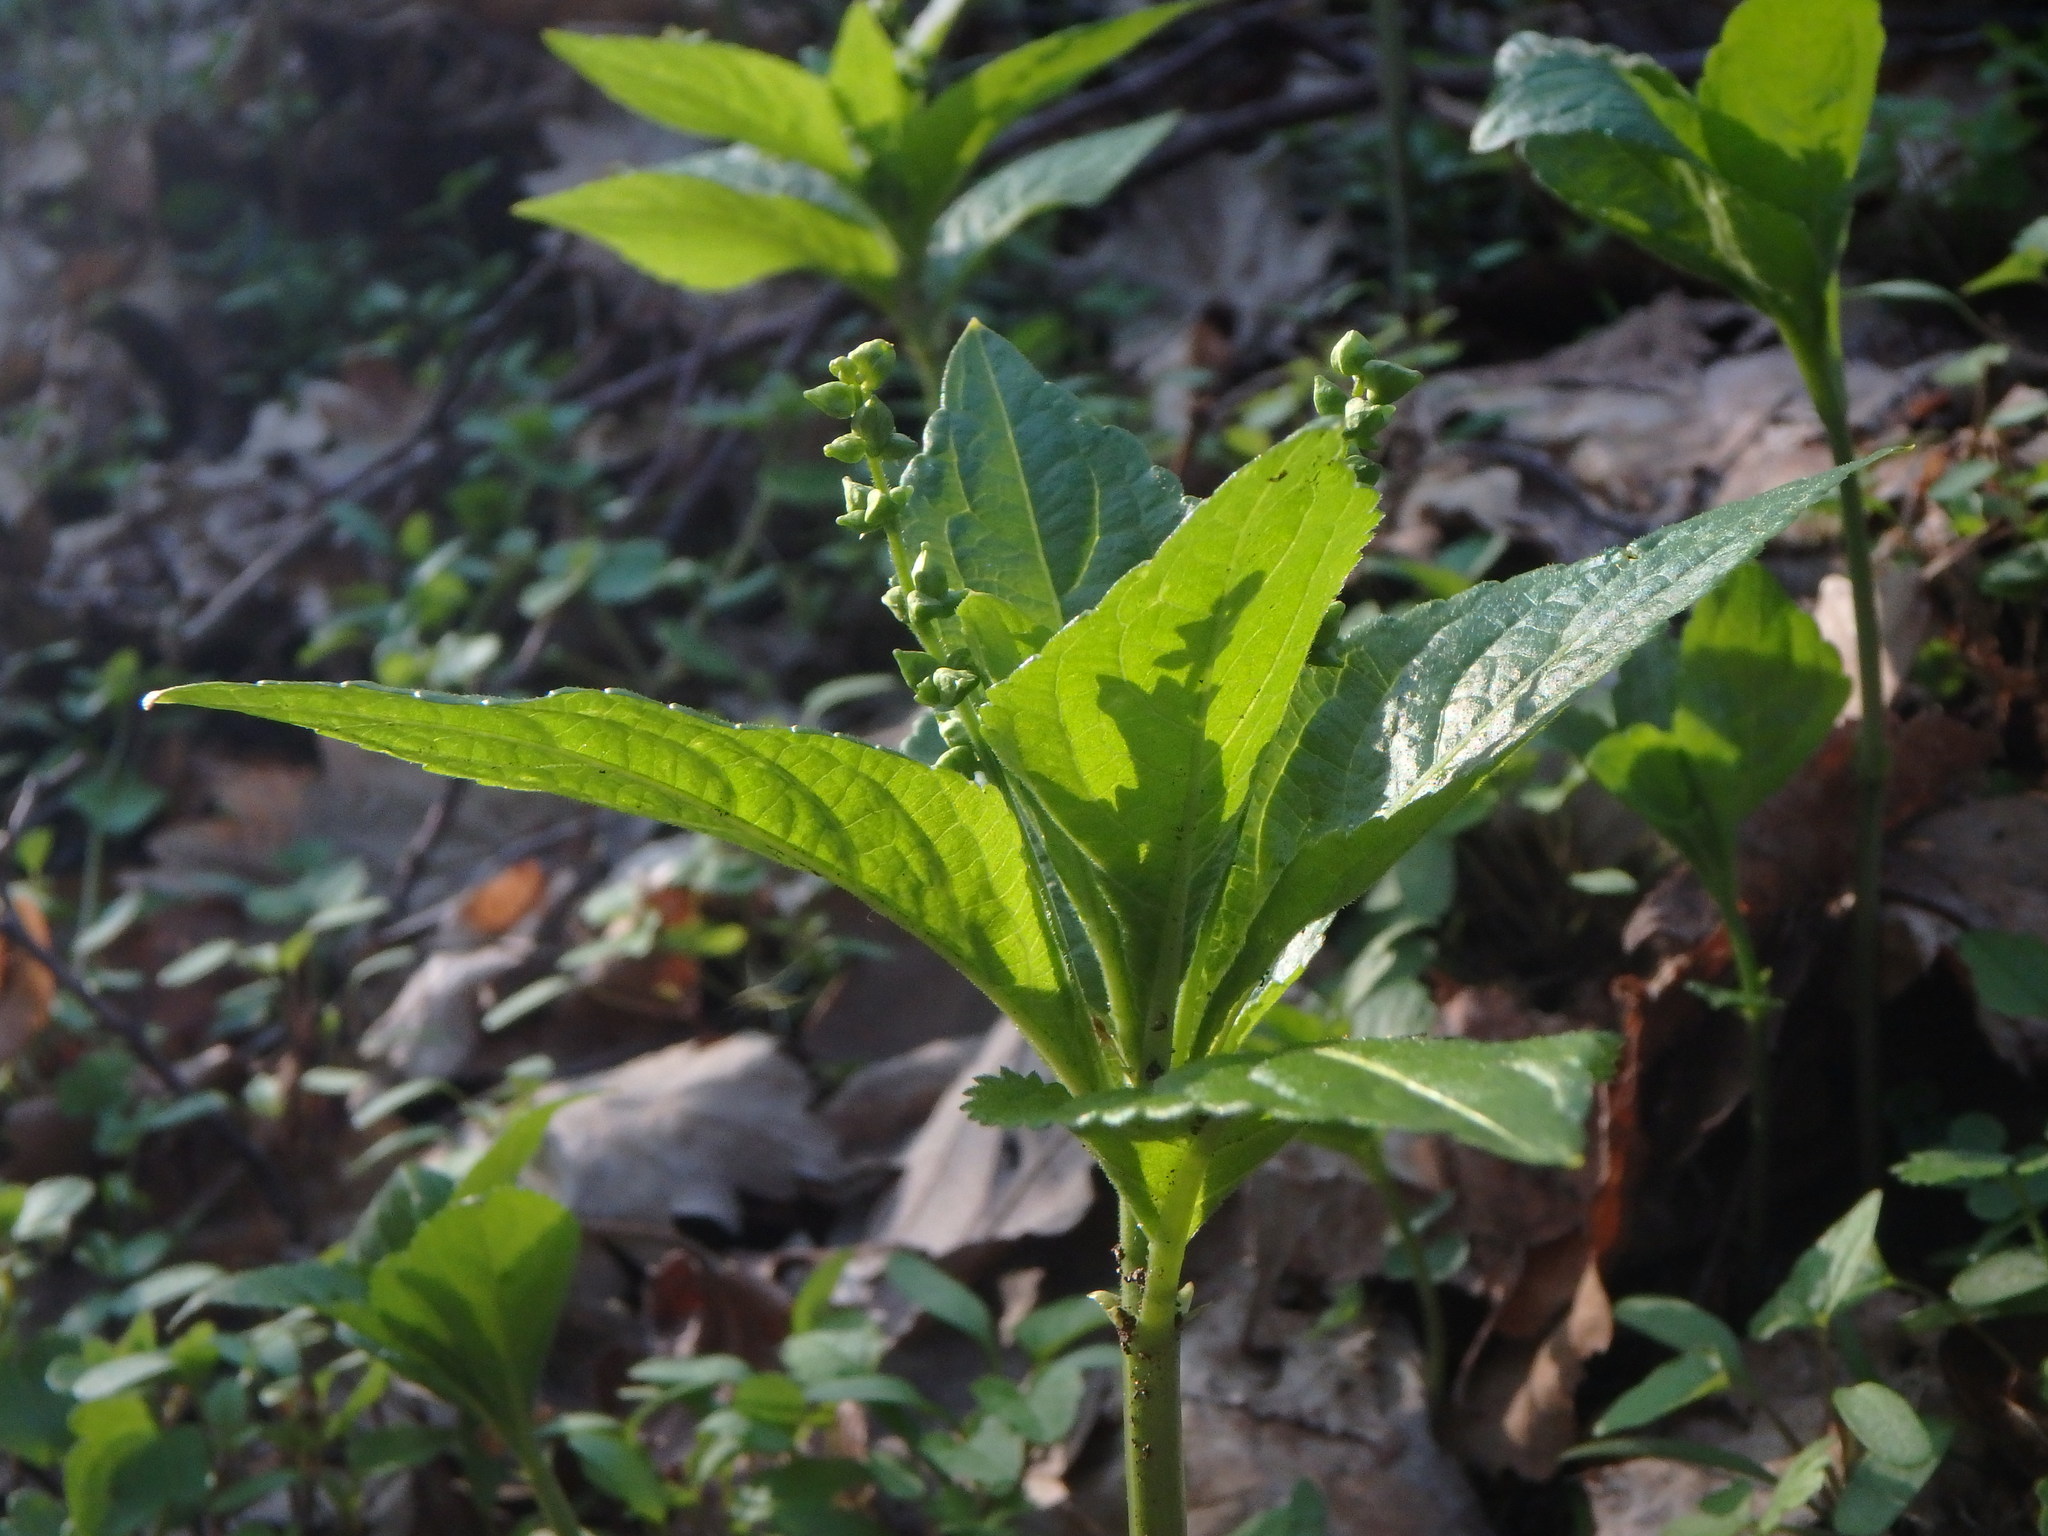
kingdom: Plantae
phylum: Tracheophyta
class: Magnoliopsida
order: Malpighiales
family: Euphorbiaceae
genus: Mercurialis
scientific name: Mercurialis perennis
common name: Dog mercury
